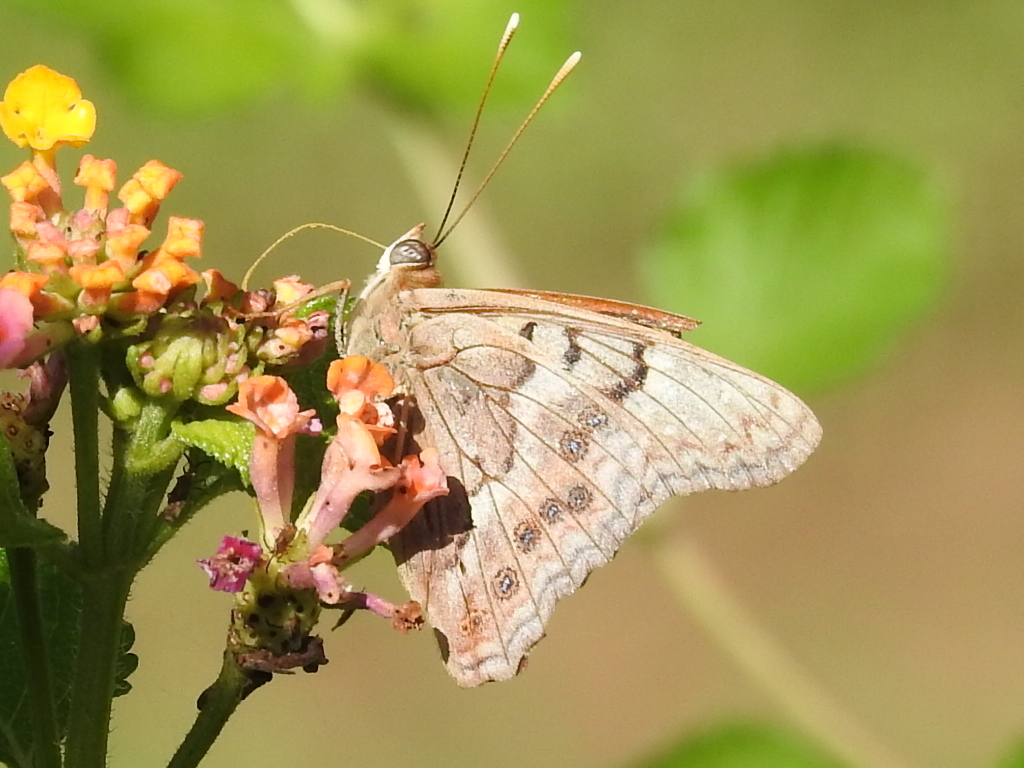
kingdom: Animalia
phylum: Arthropoda
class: Insecta
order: Lepidoptera
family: Nymphalidae
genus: Asterocampa
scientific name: Asterocampa clyton
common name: Tawny emperor
